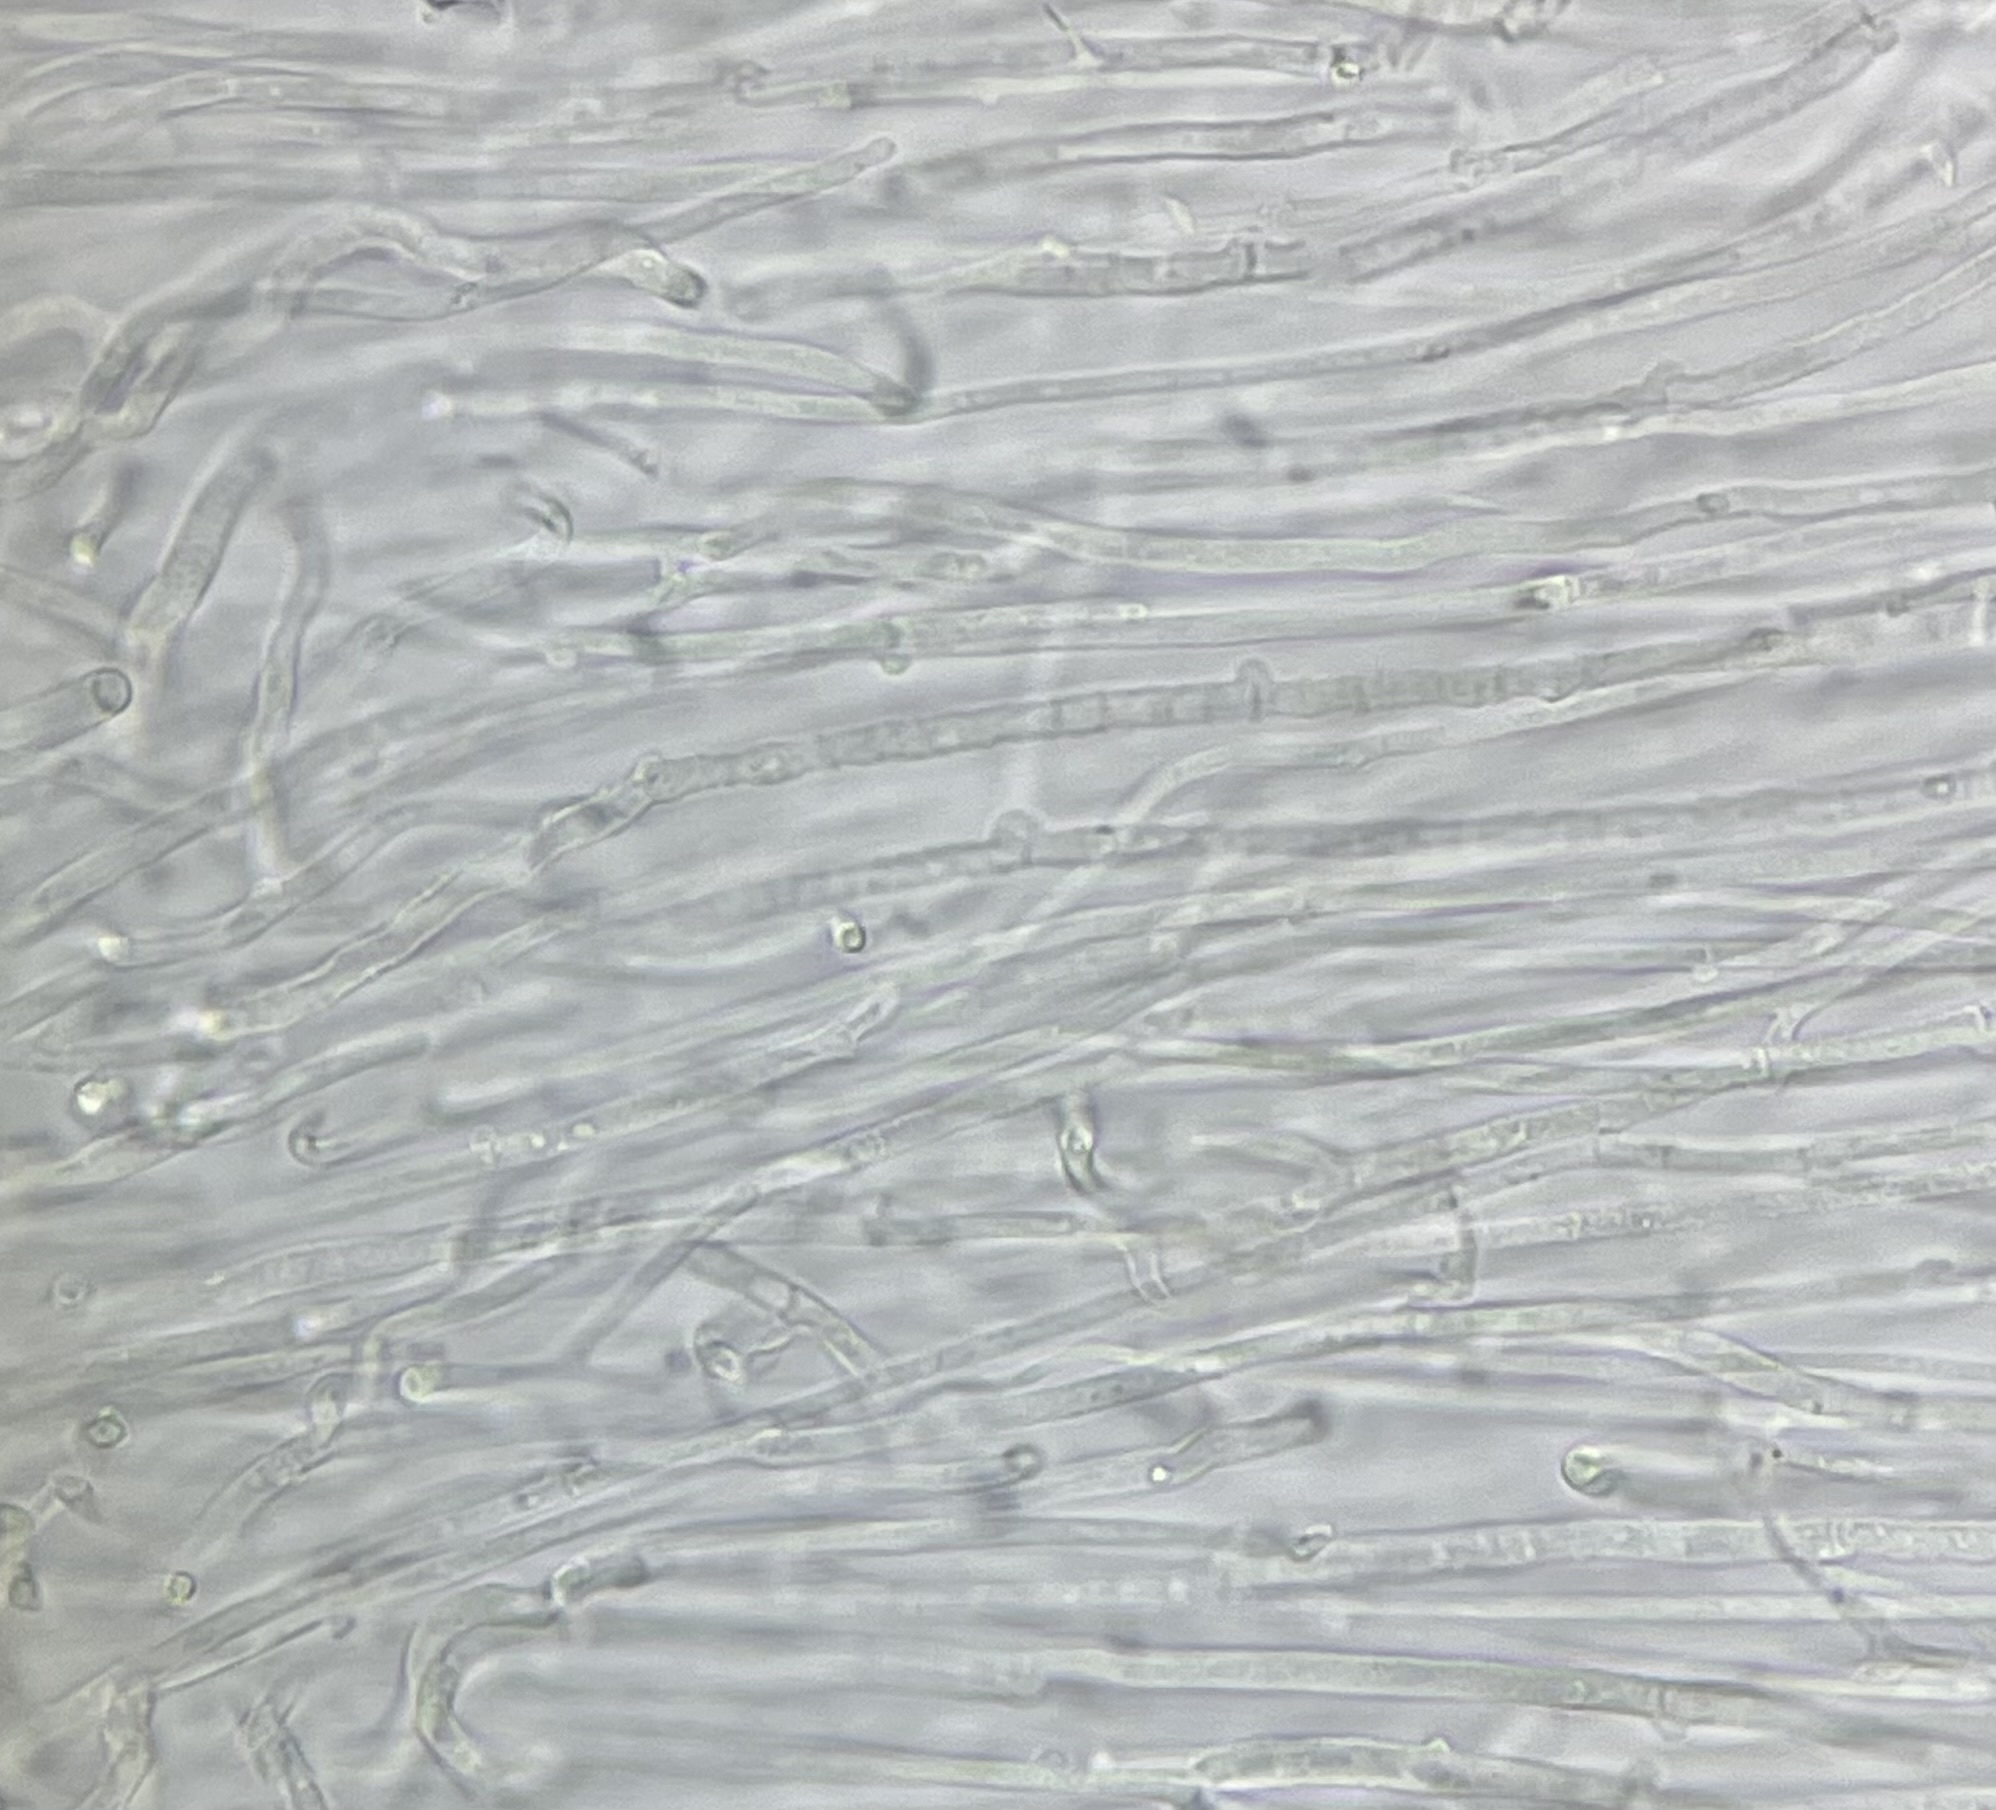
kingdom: Fungi
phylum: Basidiomycota
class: Agaricomycetes
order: Agaricales
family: Pleurotaceae
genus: Hohenbuehelia
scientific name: Hohenbuehelia mastrucata
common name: Woolly oyster
